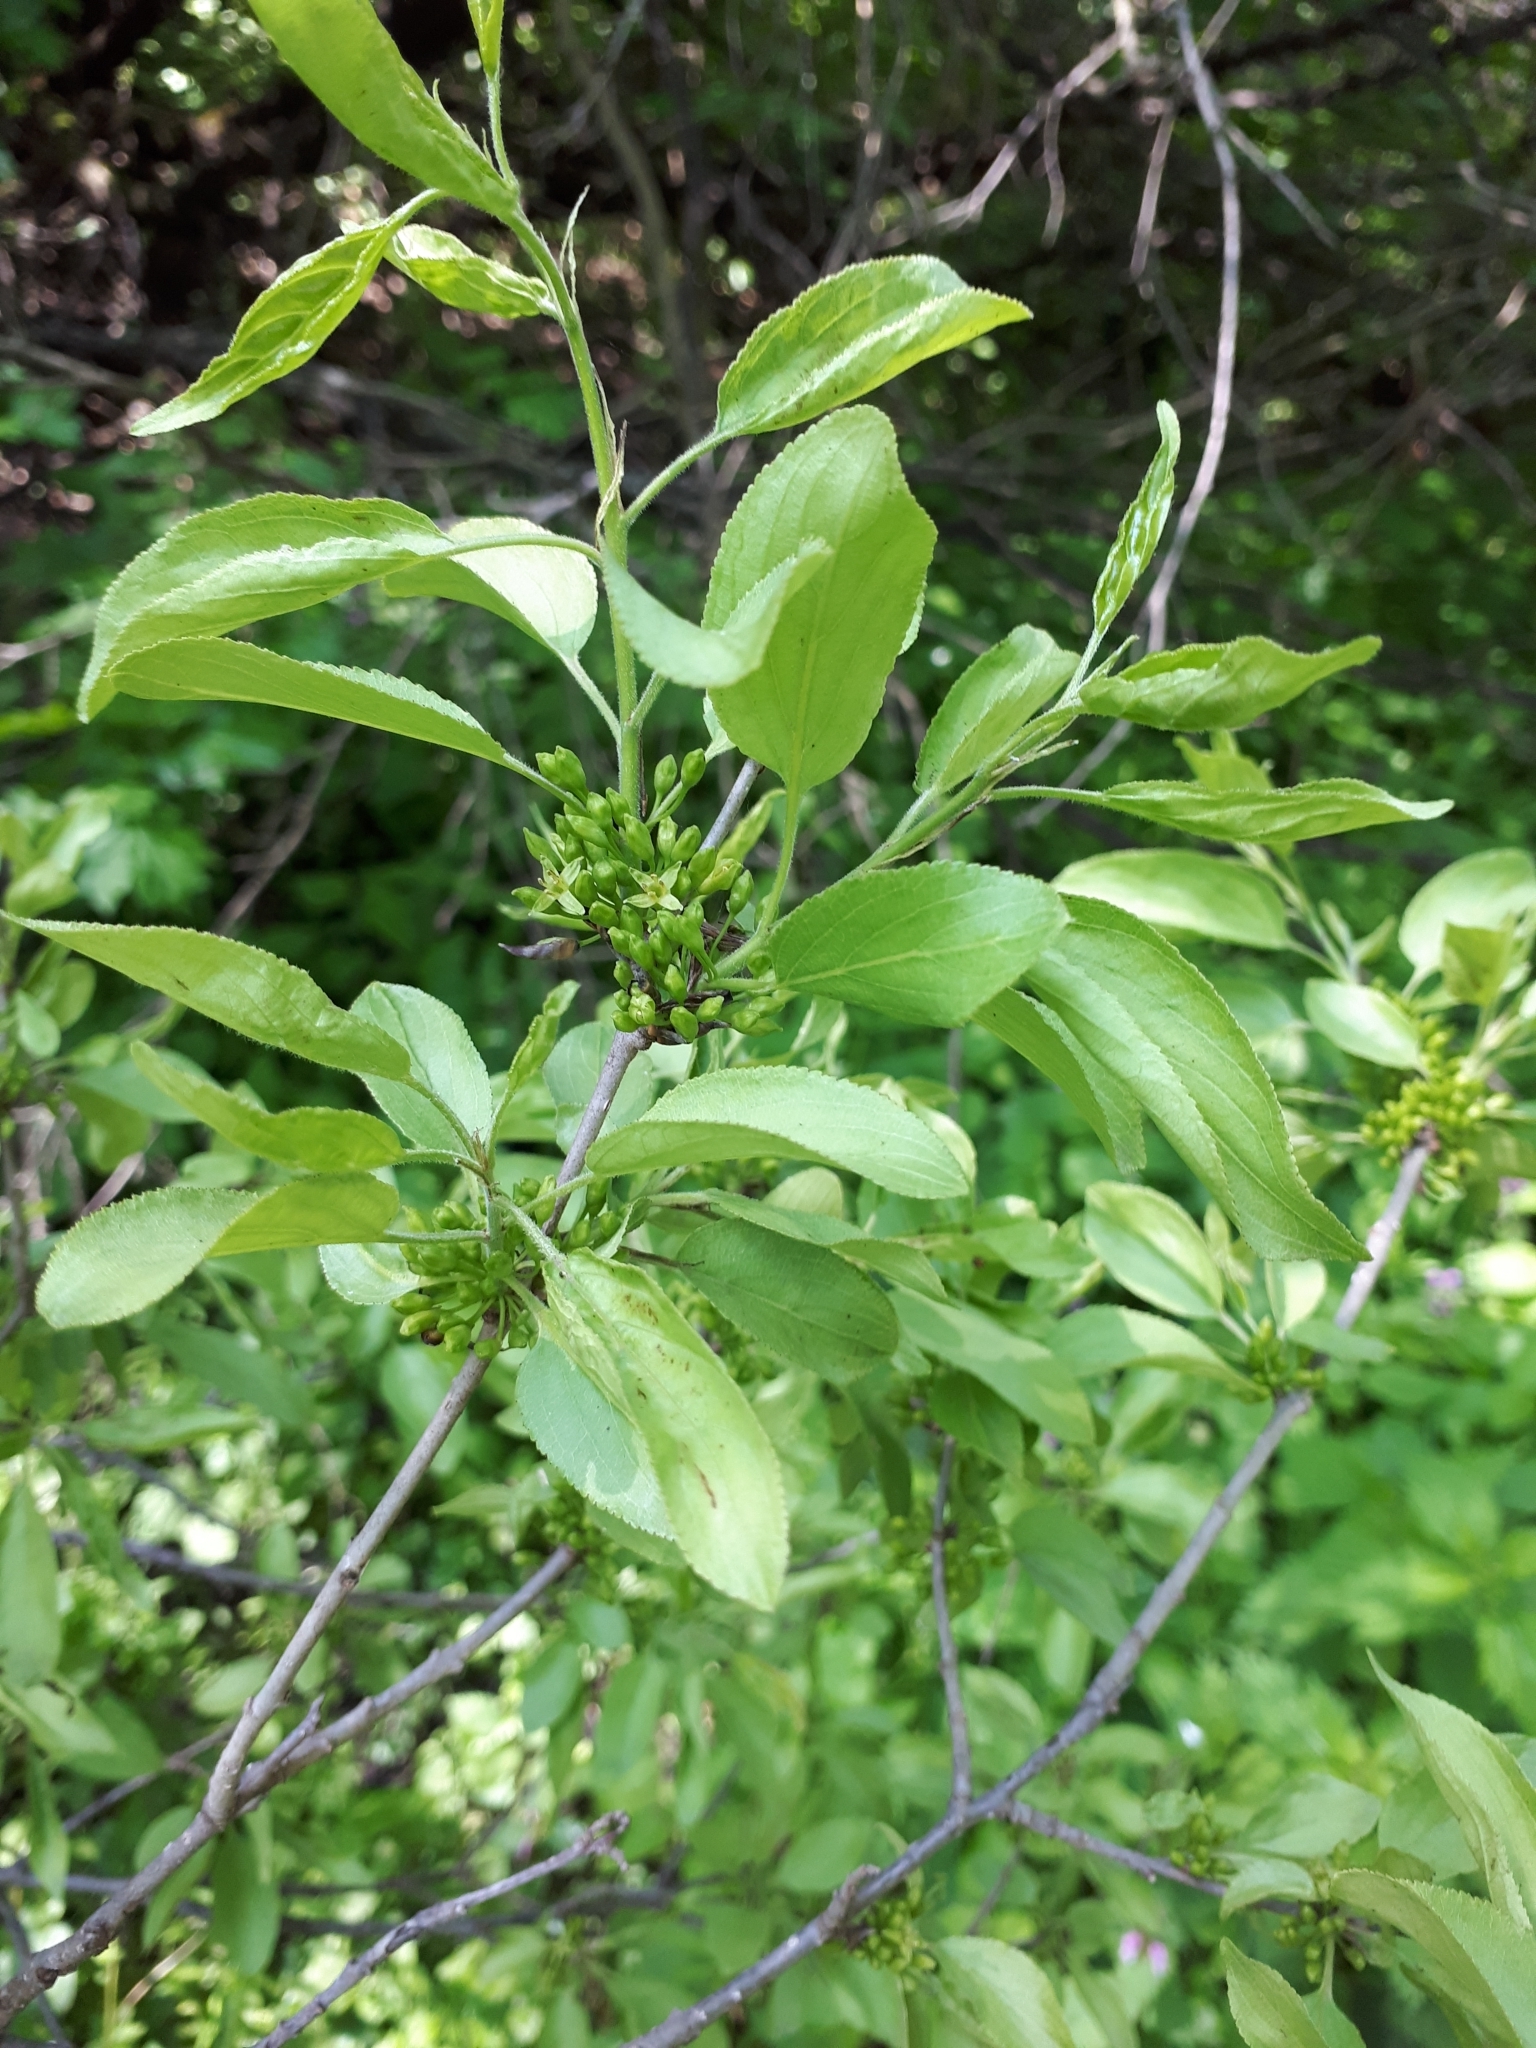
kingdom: Plantae
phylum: Tracheophyta
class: Magnoliopsida
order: Rosales
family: Rhamnaceae
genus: Rhamnus
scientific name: Rhamnus cathartica
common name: Common buckthorn
